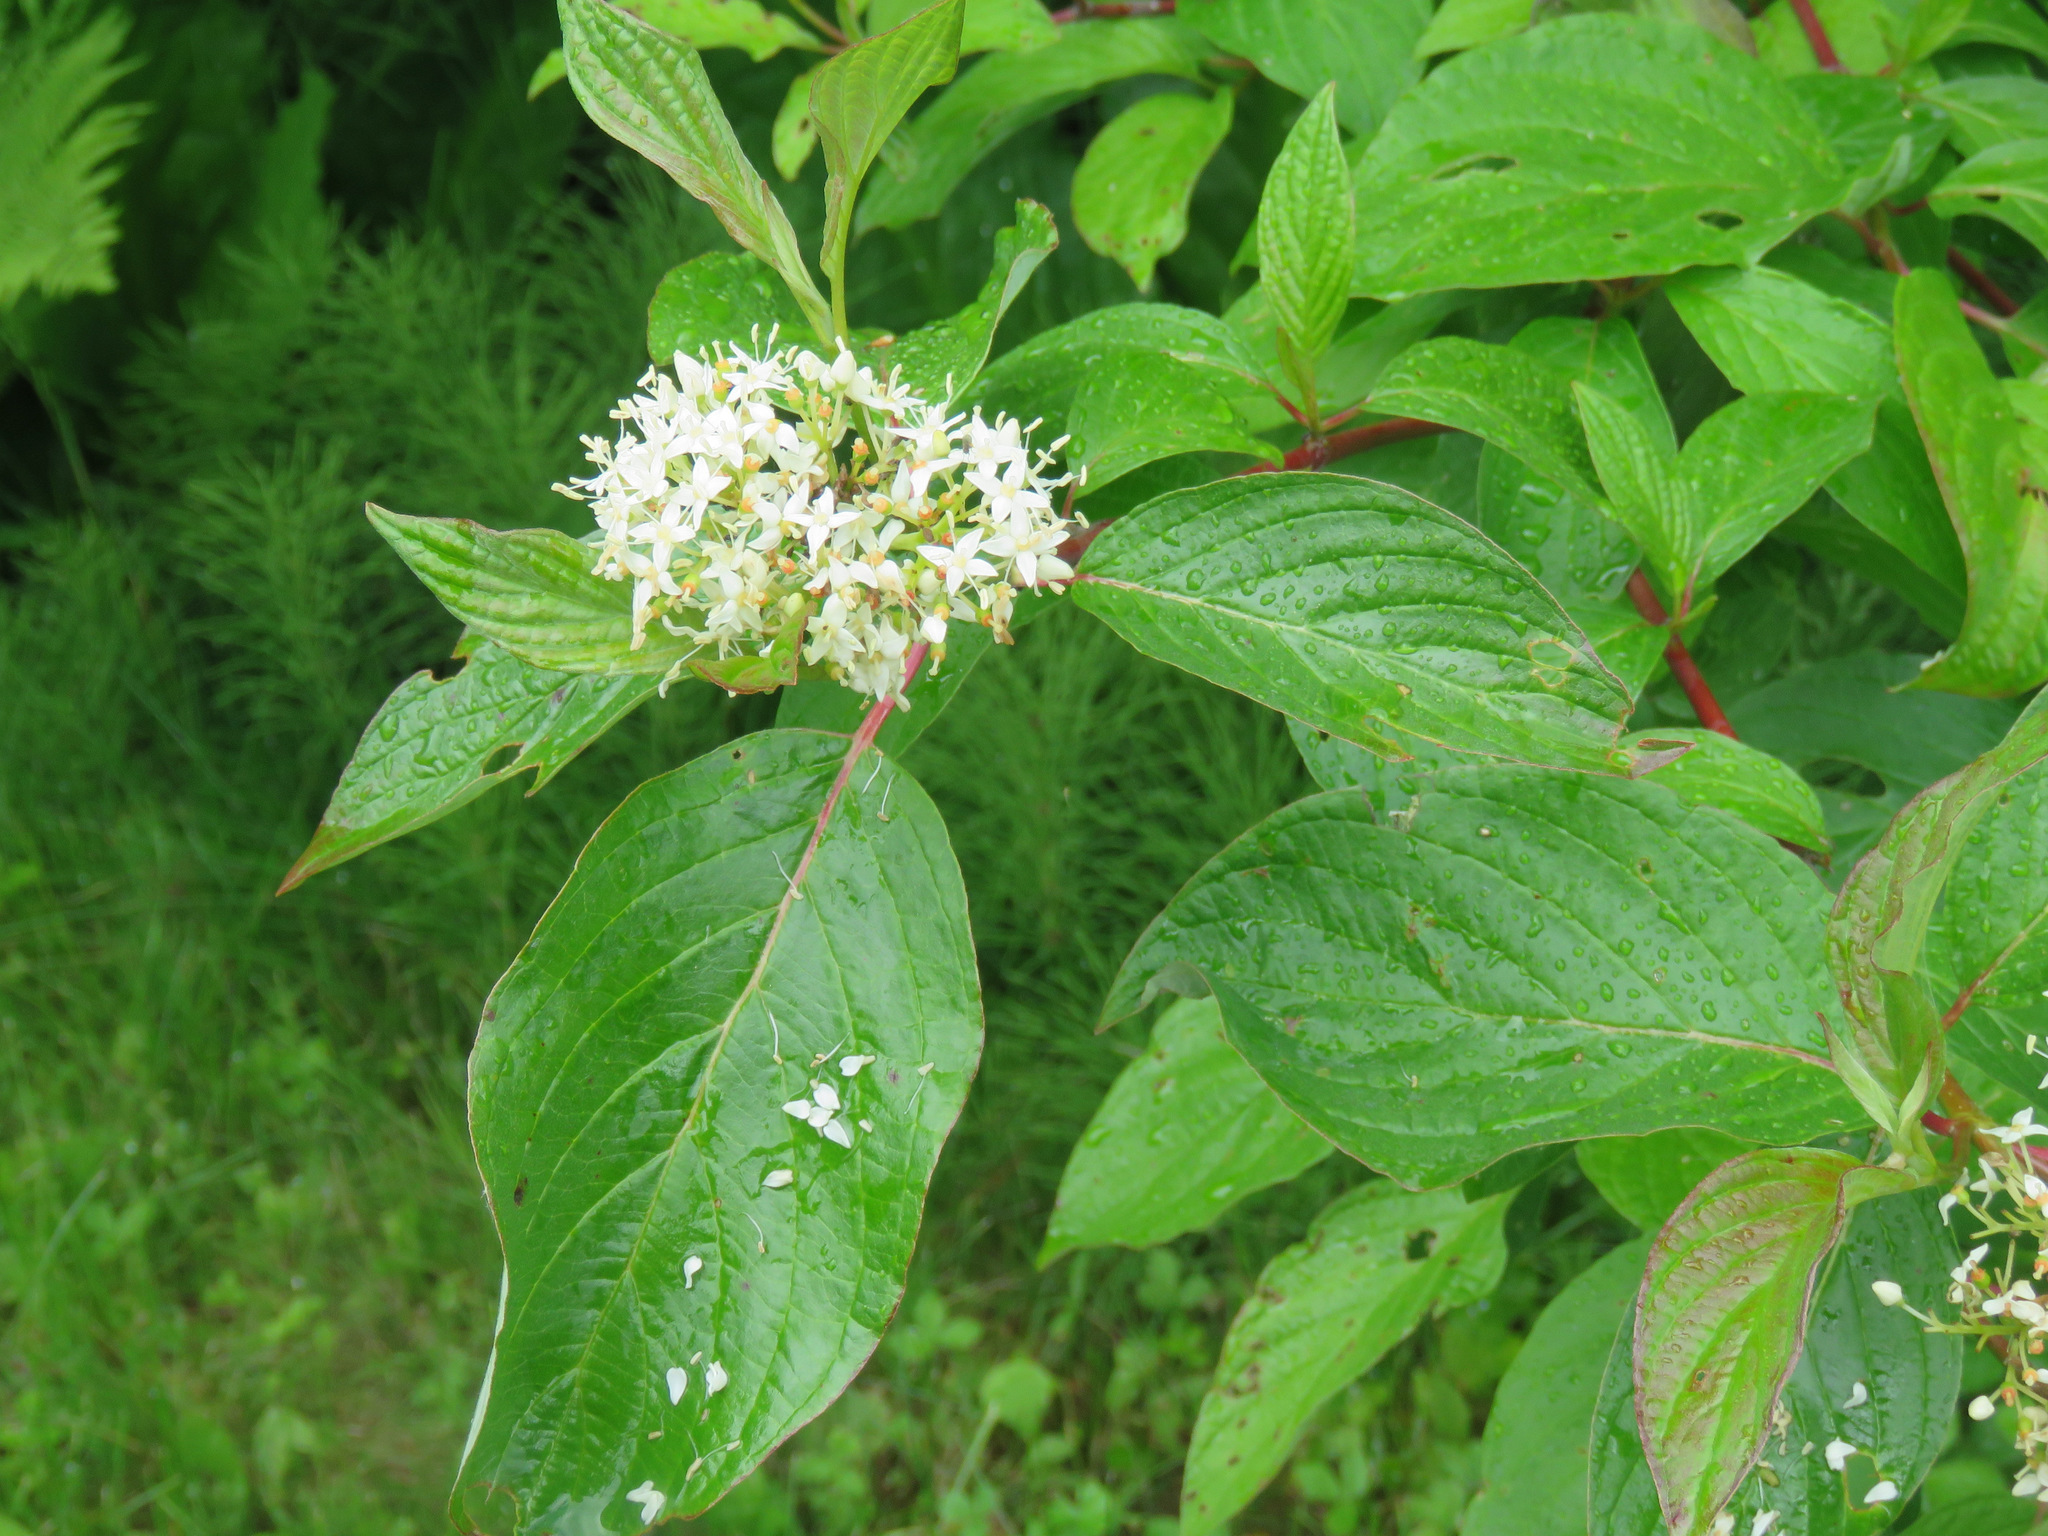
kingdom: Plantae
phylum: Tracheophyta
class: Magnoliopsida
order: Cornales
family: Cornaceae
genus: Cornus
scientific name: Cornus sericea
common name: Red-osier dogwood
